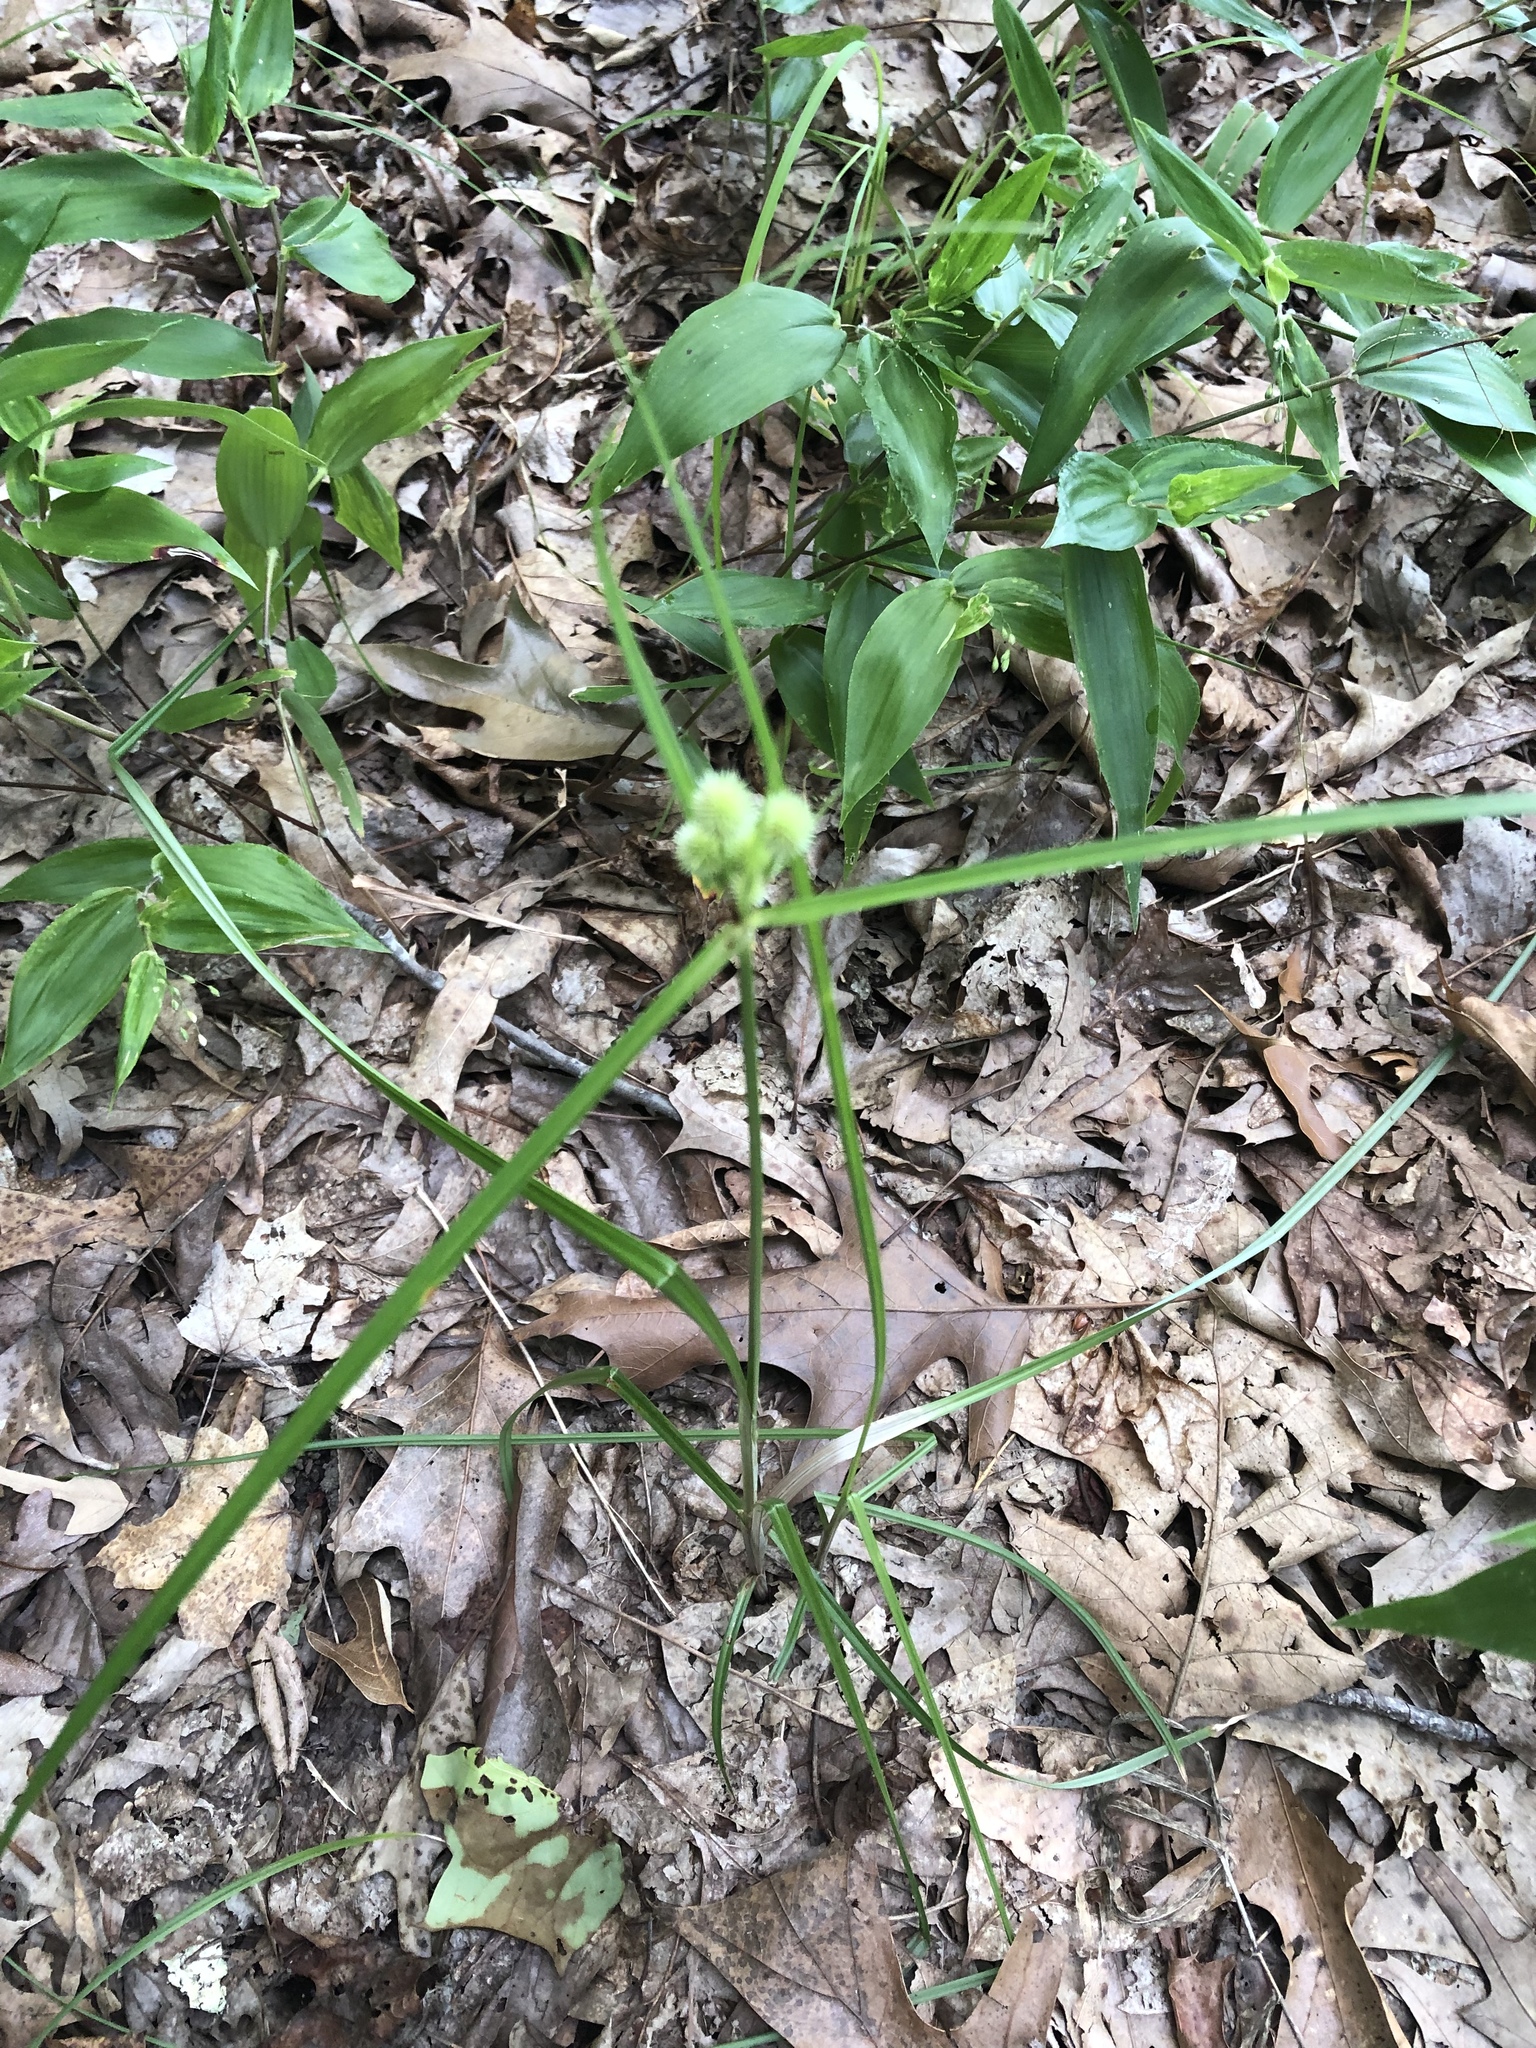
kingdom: Plantae
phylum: Tracheophyta
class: Liliopsida
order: Poales
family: Cyperaceae
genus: Cyperus
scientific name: Cyperus echinatus
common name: Teasel sedge
